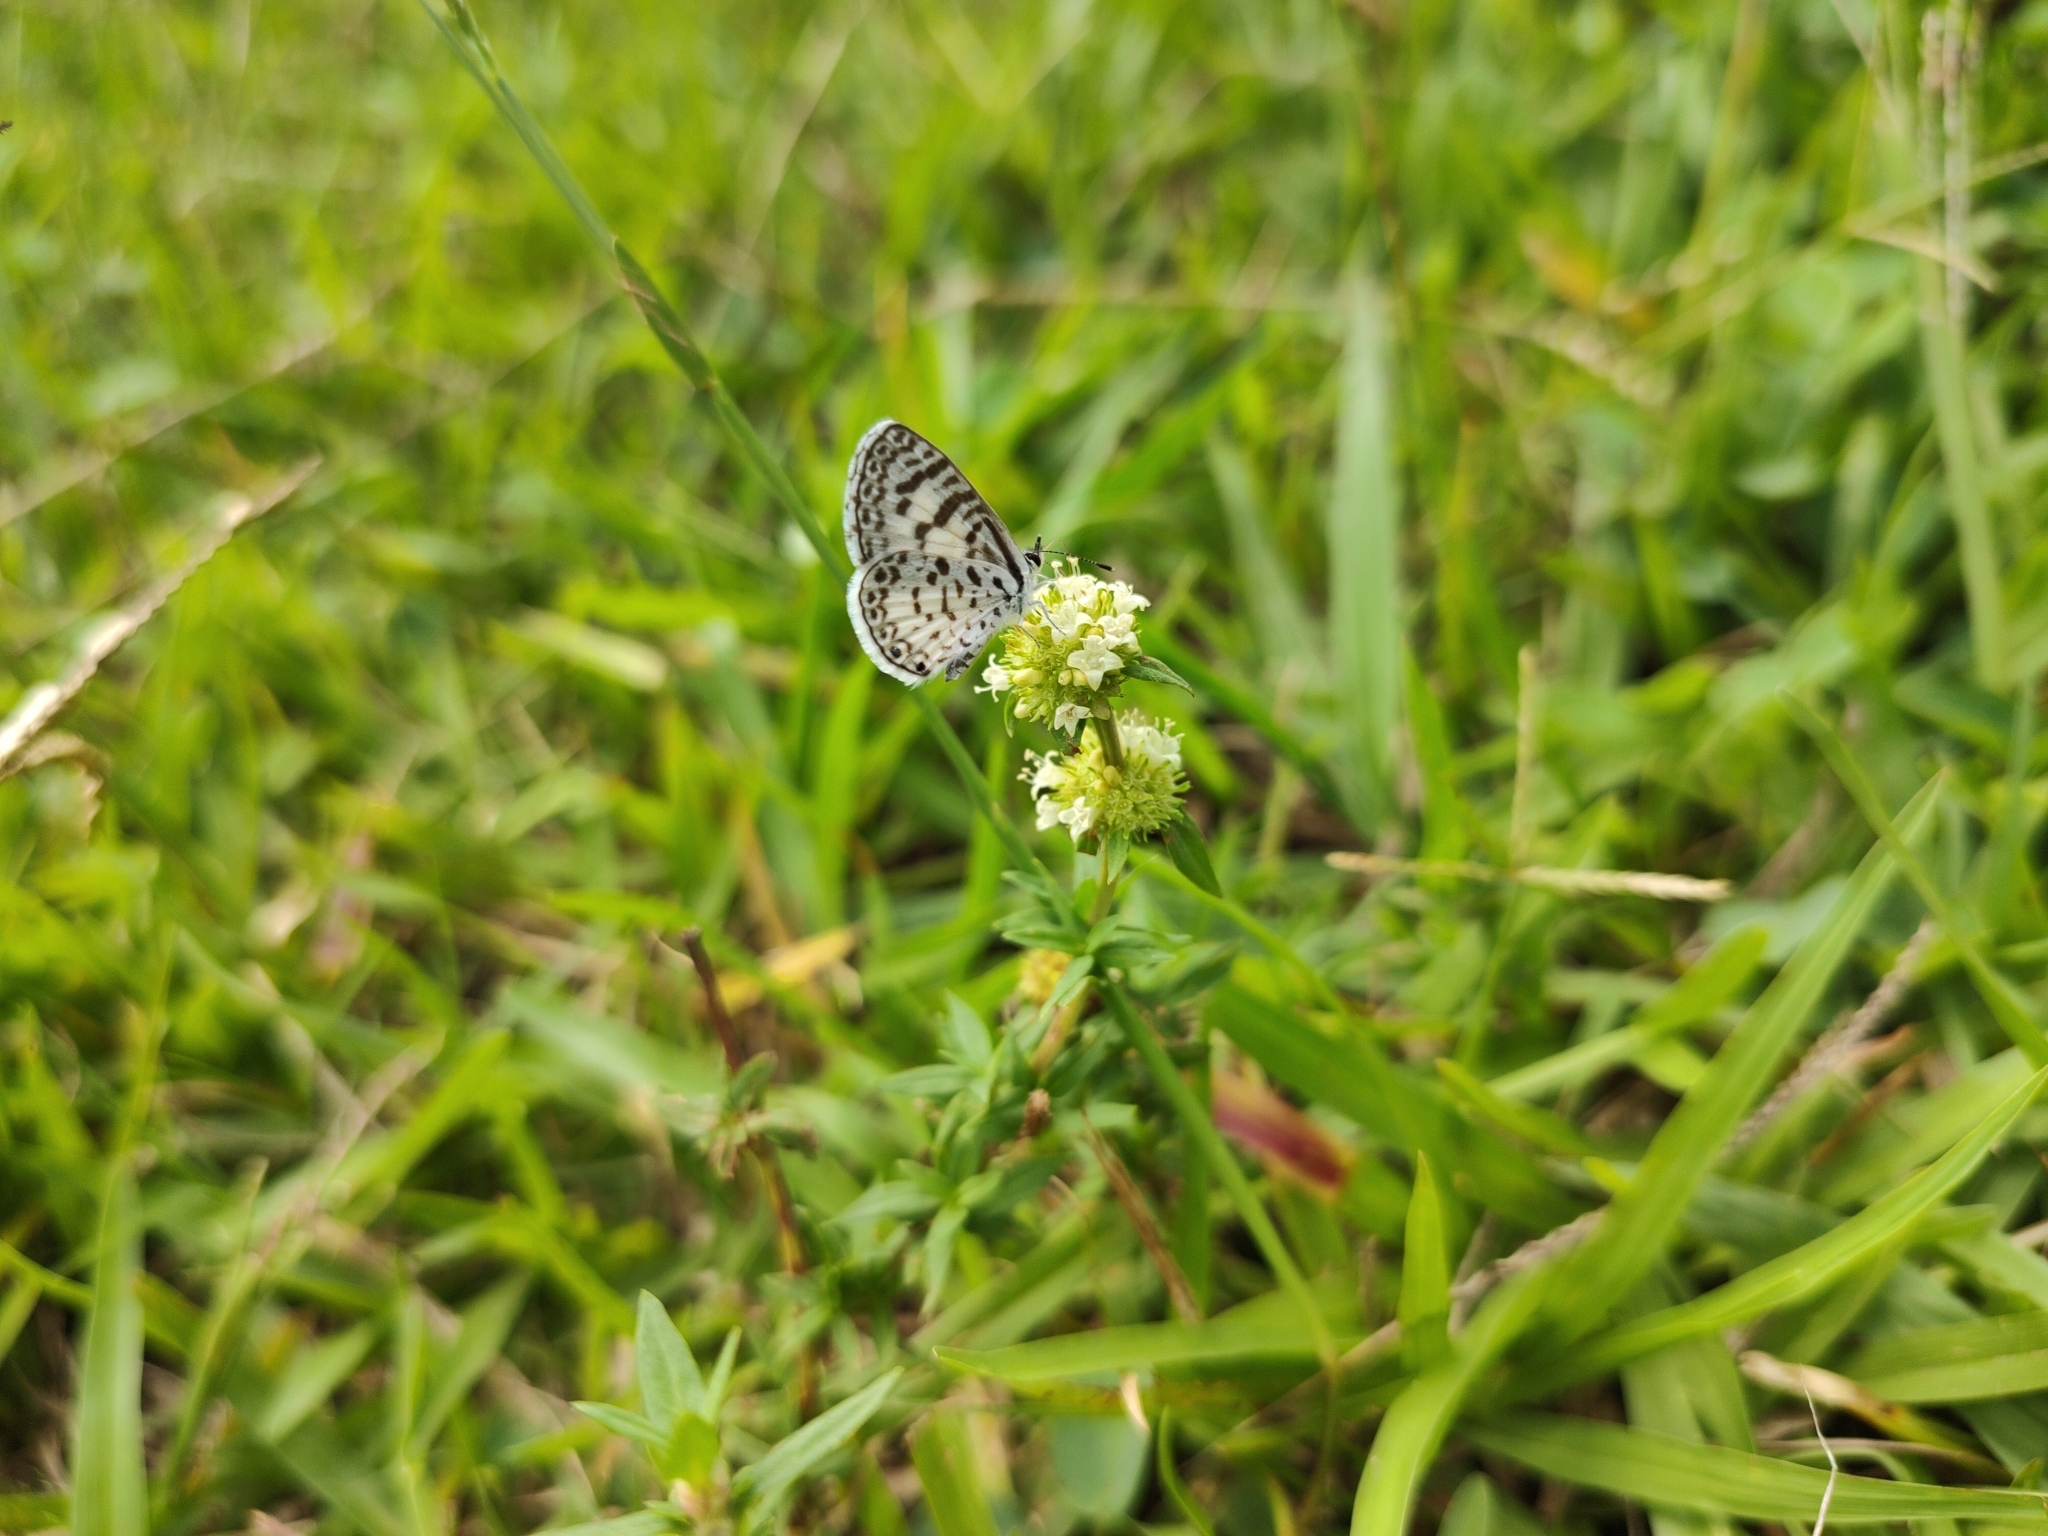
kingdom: Animalia
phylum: Arthropoda
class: Insecta
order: Lepidoptera
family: Lycaenidae
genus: Leptotes
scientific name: Leptotes cassius
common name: Cassius blue
